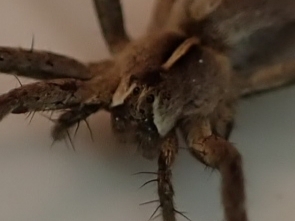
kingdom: Animalia
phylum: Arthropoda
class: Arachnida
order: Araneae
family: Pisauridae
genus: Pisaura
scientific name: Pisaura mirabilis
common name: Tent spider
